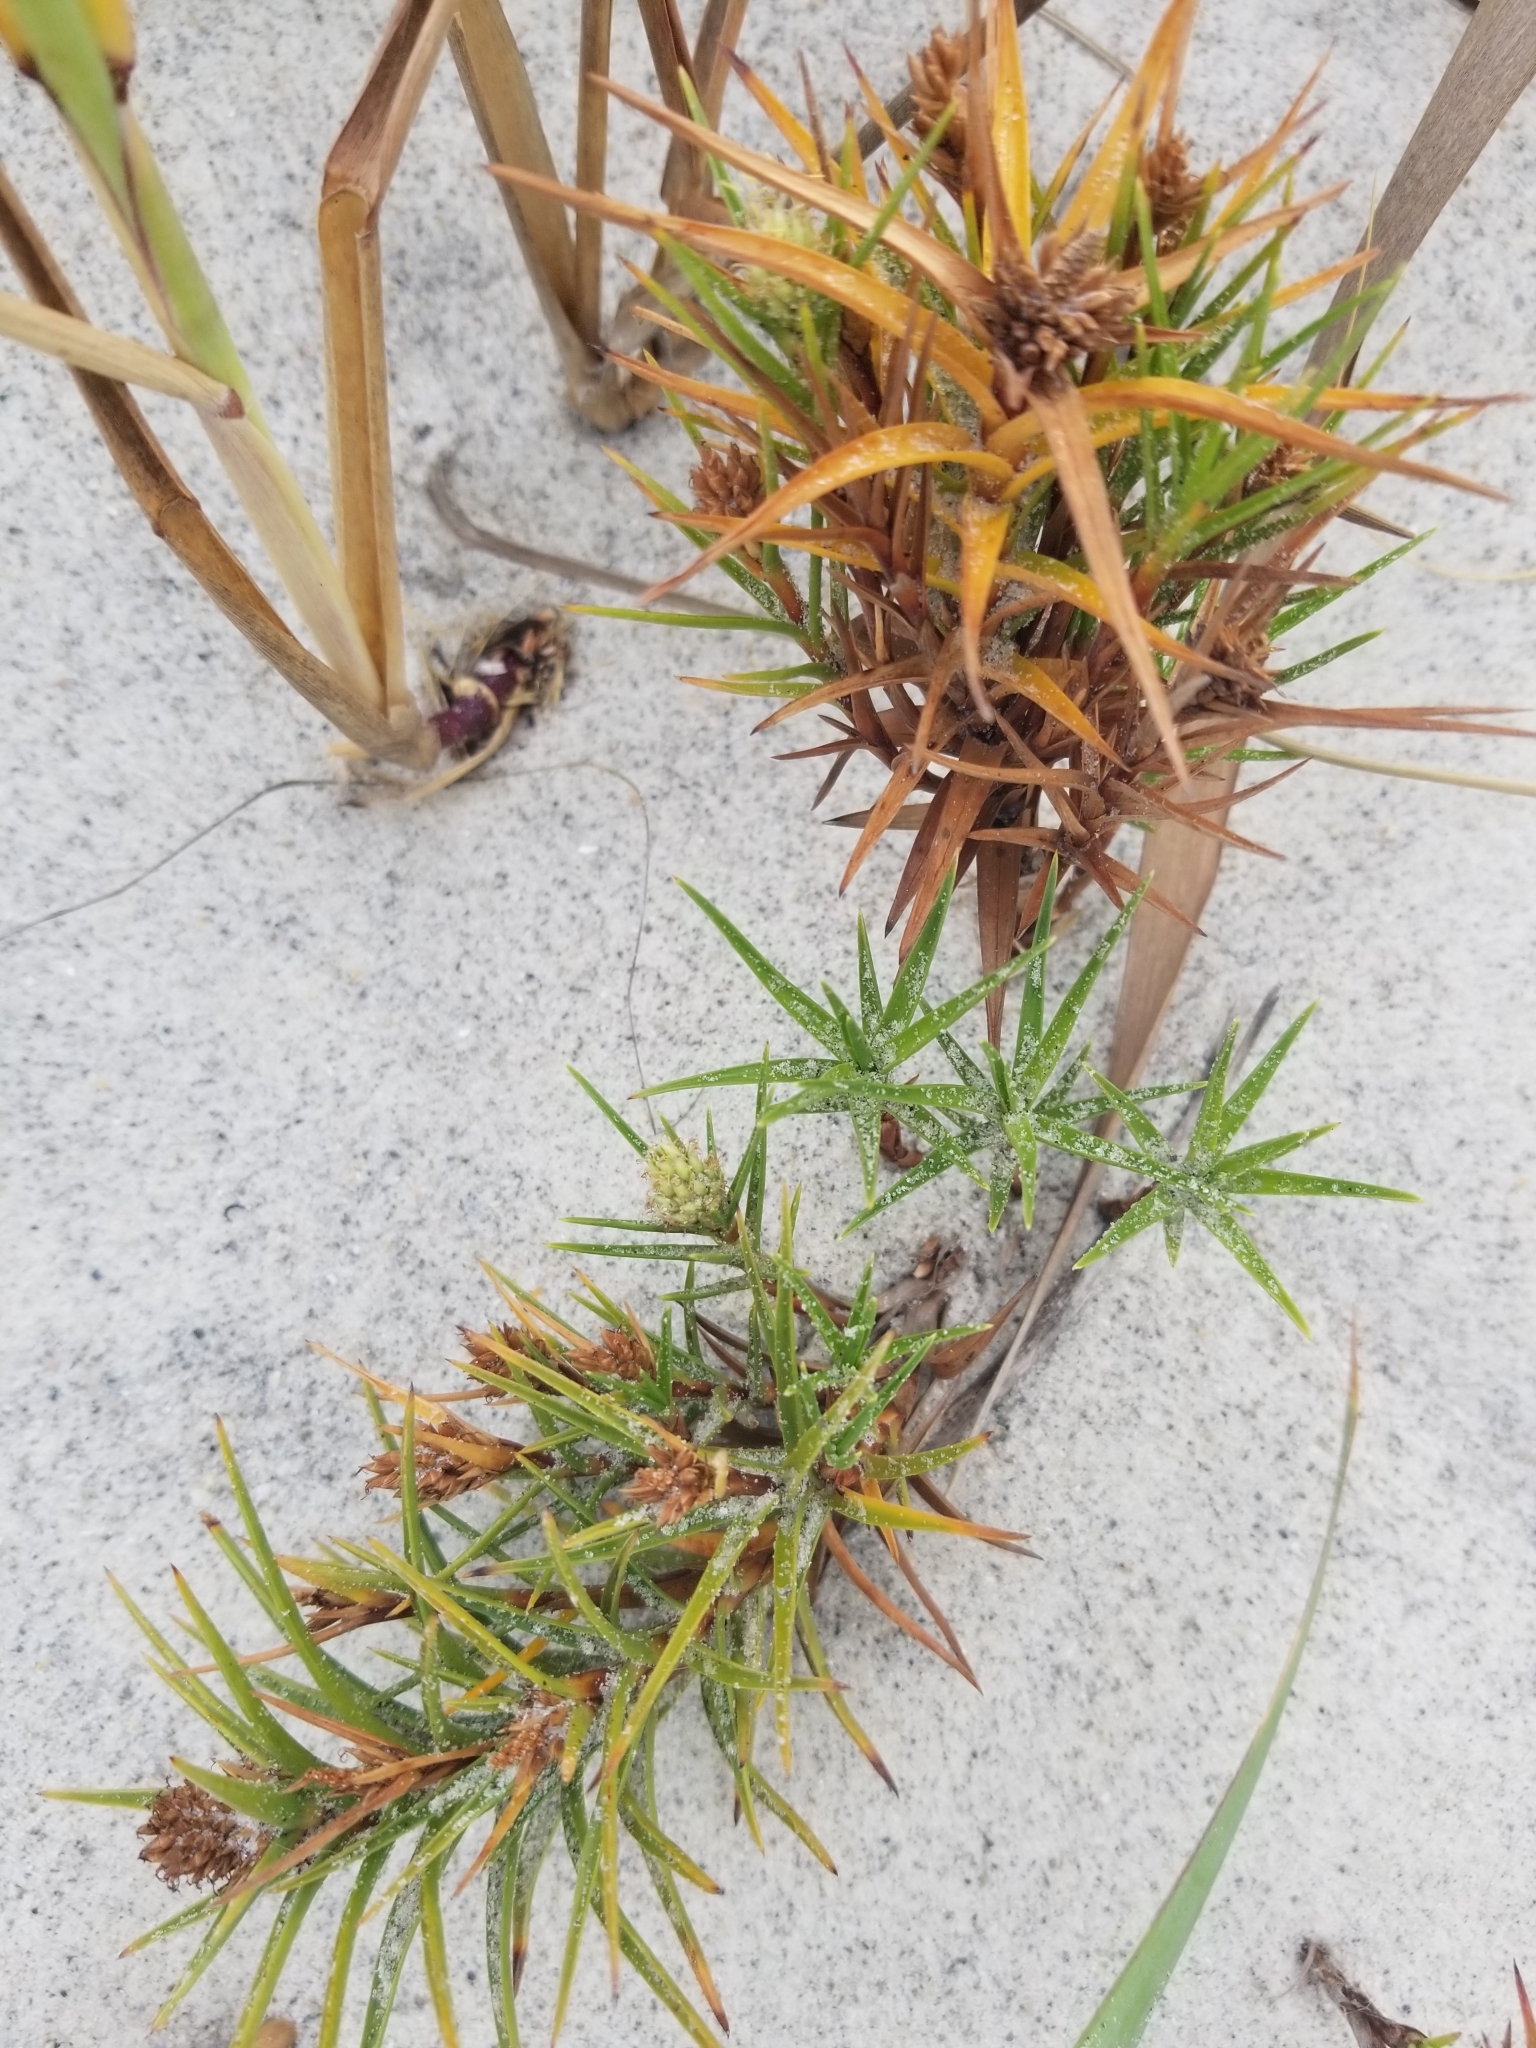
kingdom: Plantae
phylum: Tracheophyta
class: Liliopsida
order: Poales
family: Cyperaceae
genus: Cyperus
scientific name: Cyperus pedunculatus
